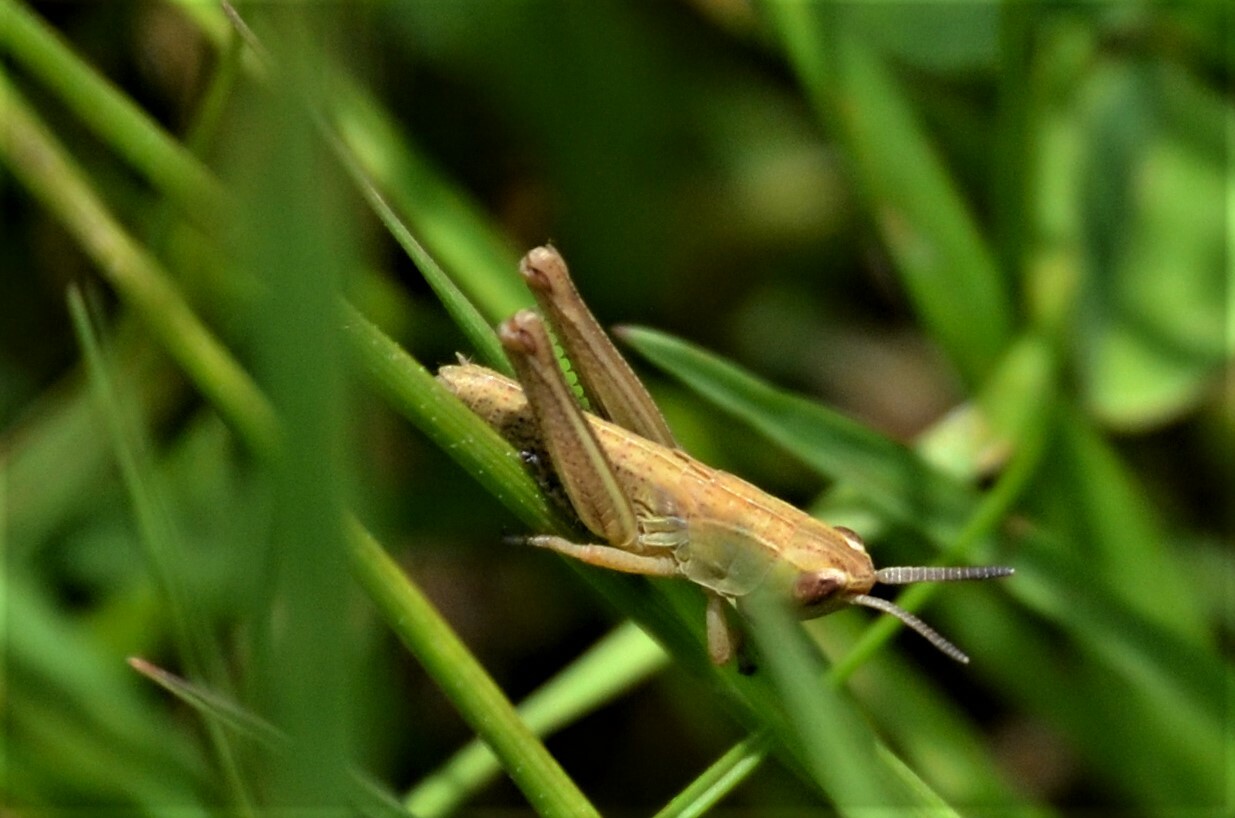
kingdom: Animalia
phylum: Arthropoda
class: Insecta
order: Orthoptera
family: Acrididae
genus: Pseudochorthippus
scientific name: Pseudochorthippus parallelus
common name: Meadow grasshopper
